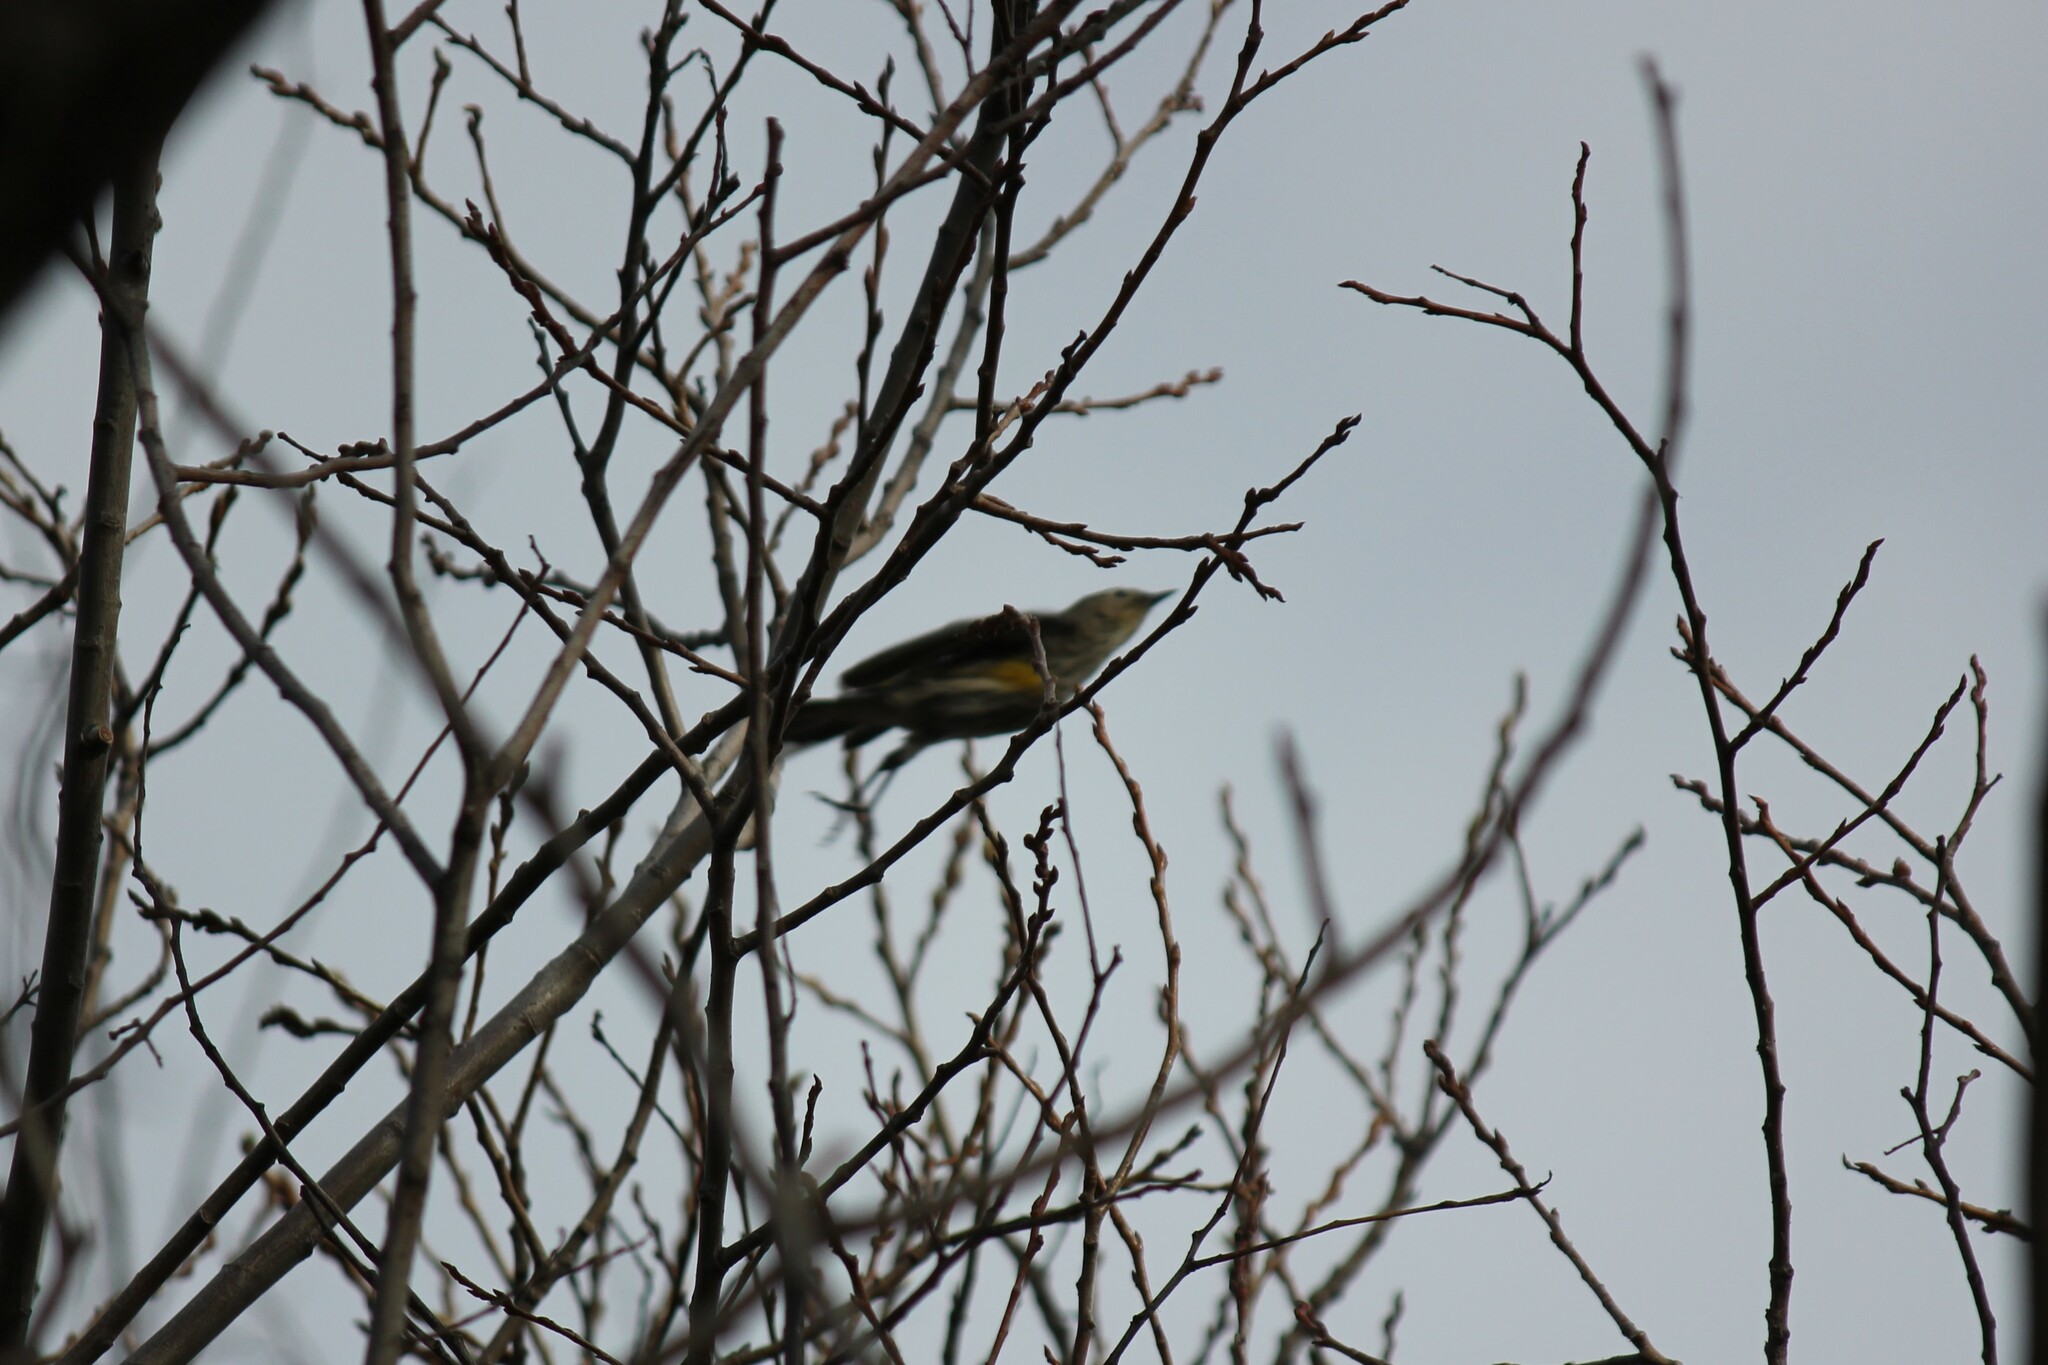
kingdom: Animalia
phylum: Chordata
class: Aves
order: Passeriformes
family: Parulidae
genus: Setophaga
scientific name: Setophaga coronata
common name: Myrtle warbler
